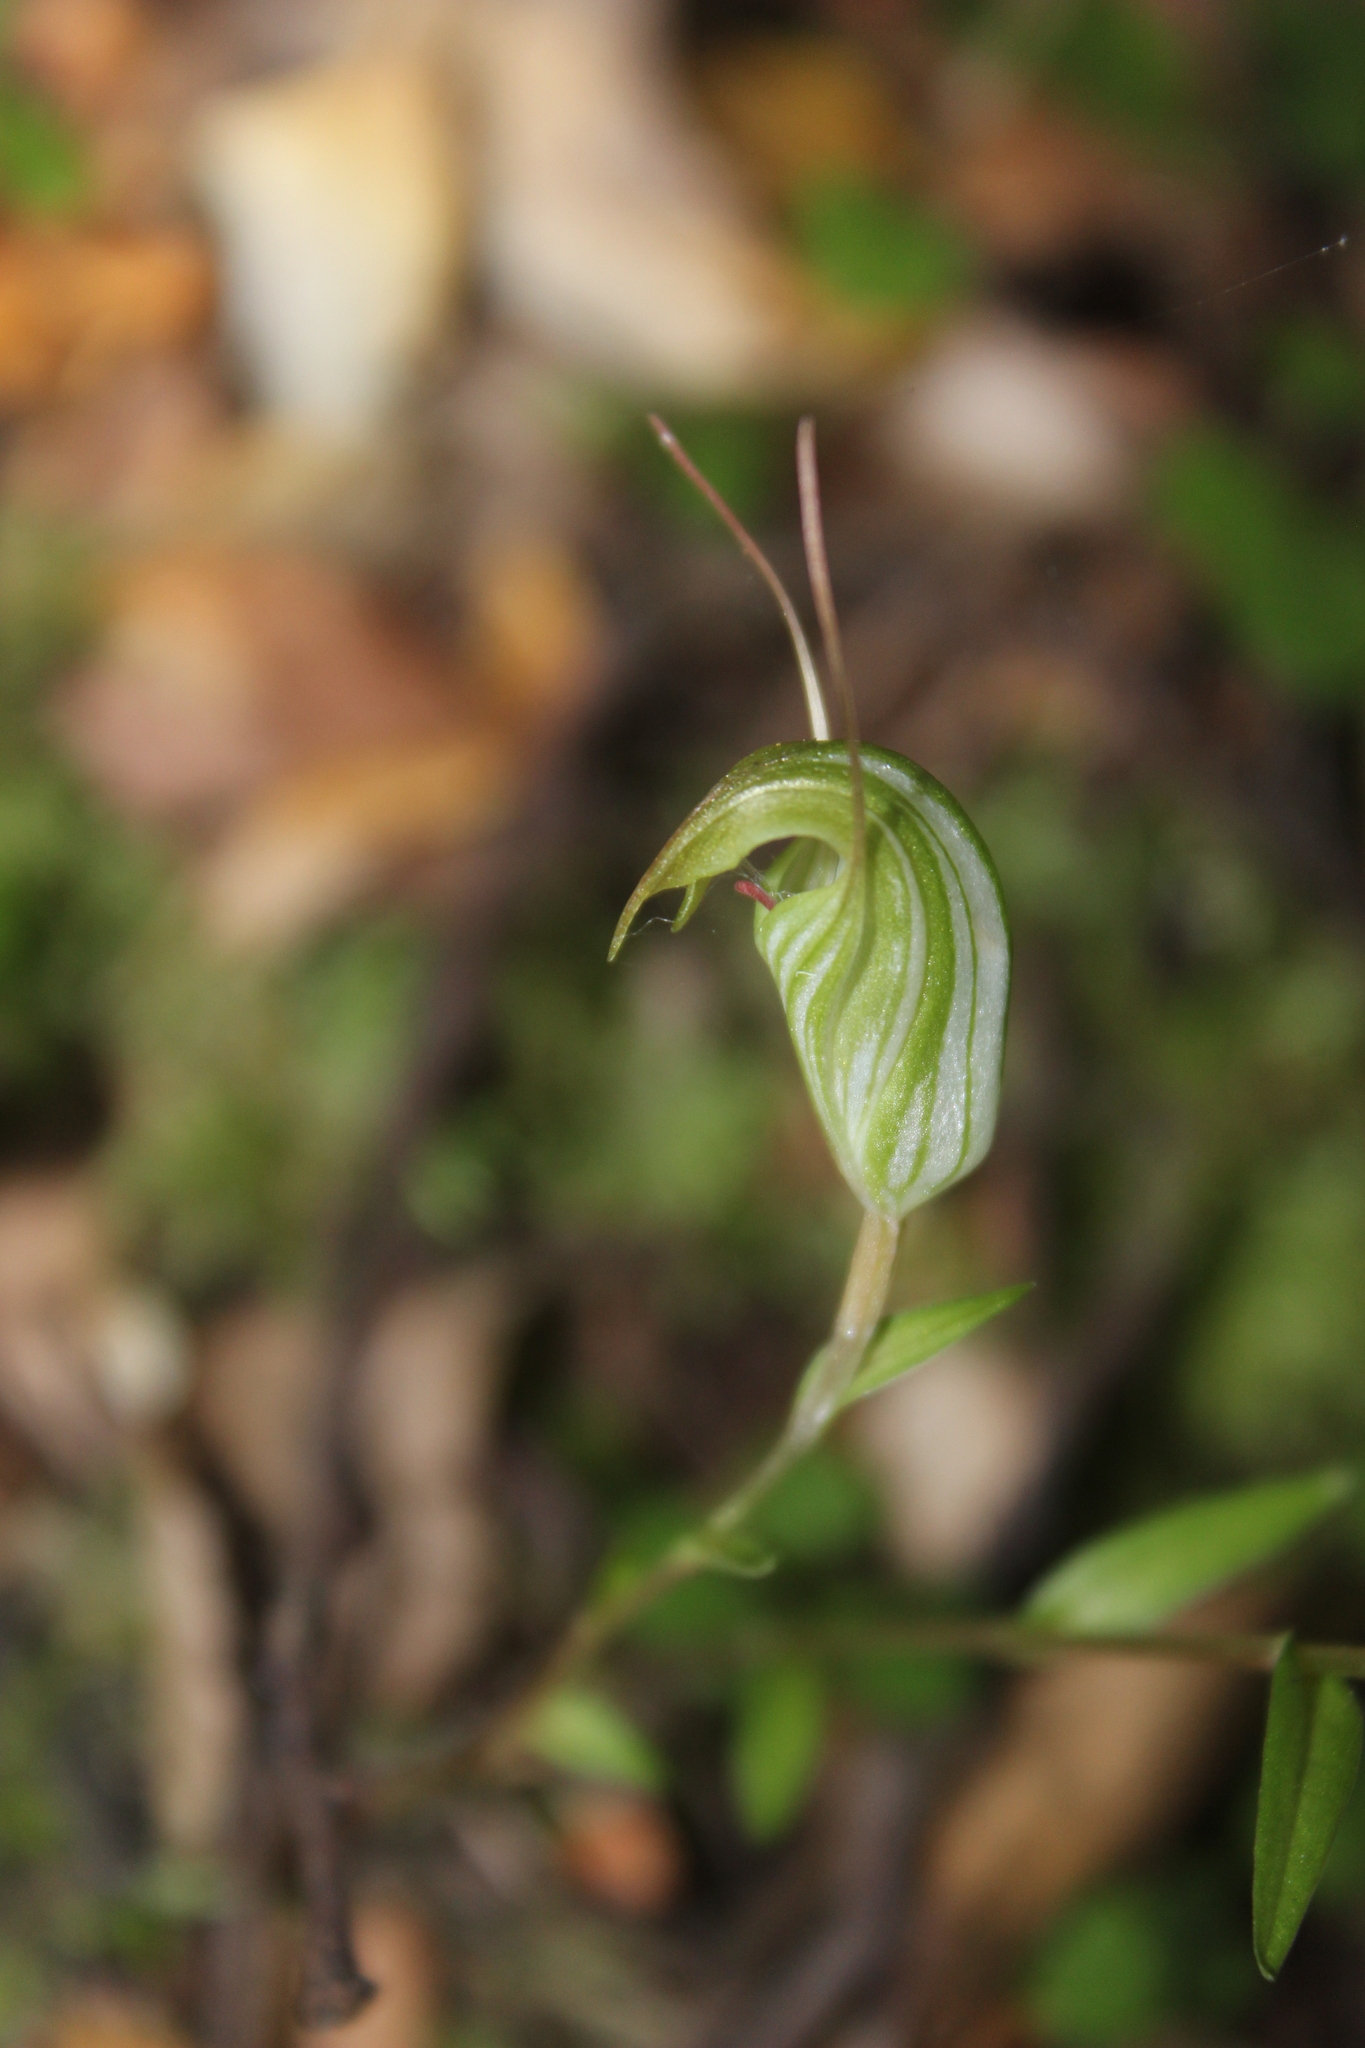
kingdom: Plantae
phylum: Tracheophyta
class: Liliopsida
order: Asparagales
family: Orchidaceae
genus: Pterostylis
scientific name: Pterostylis alobula
